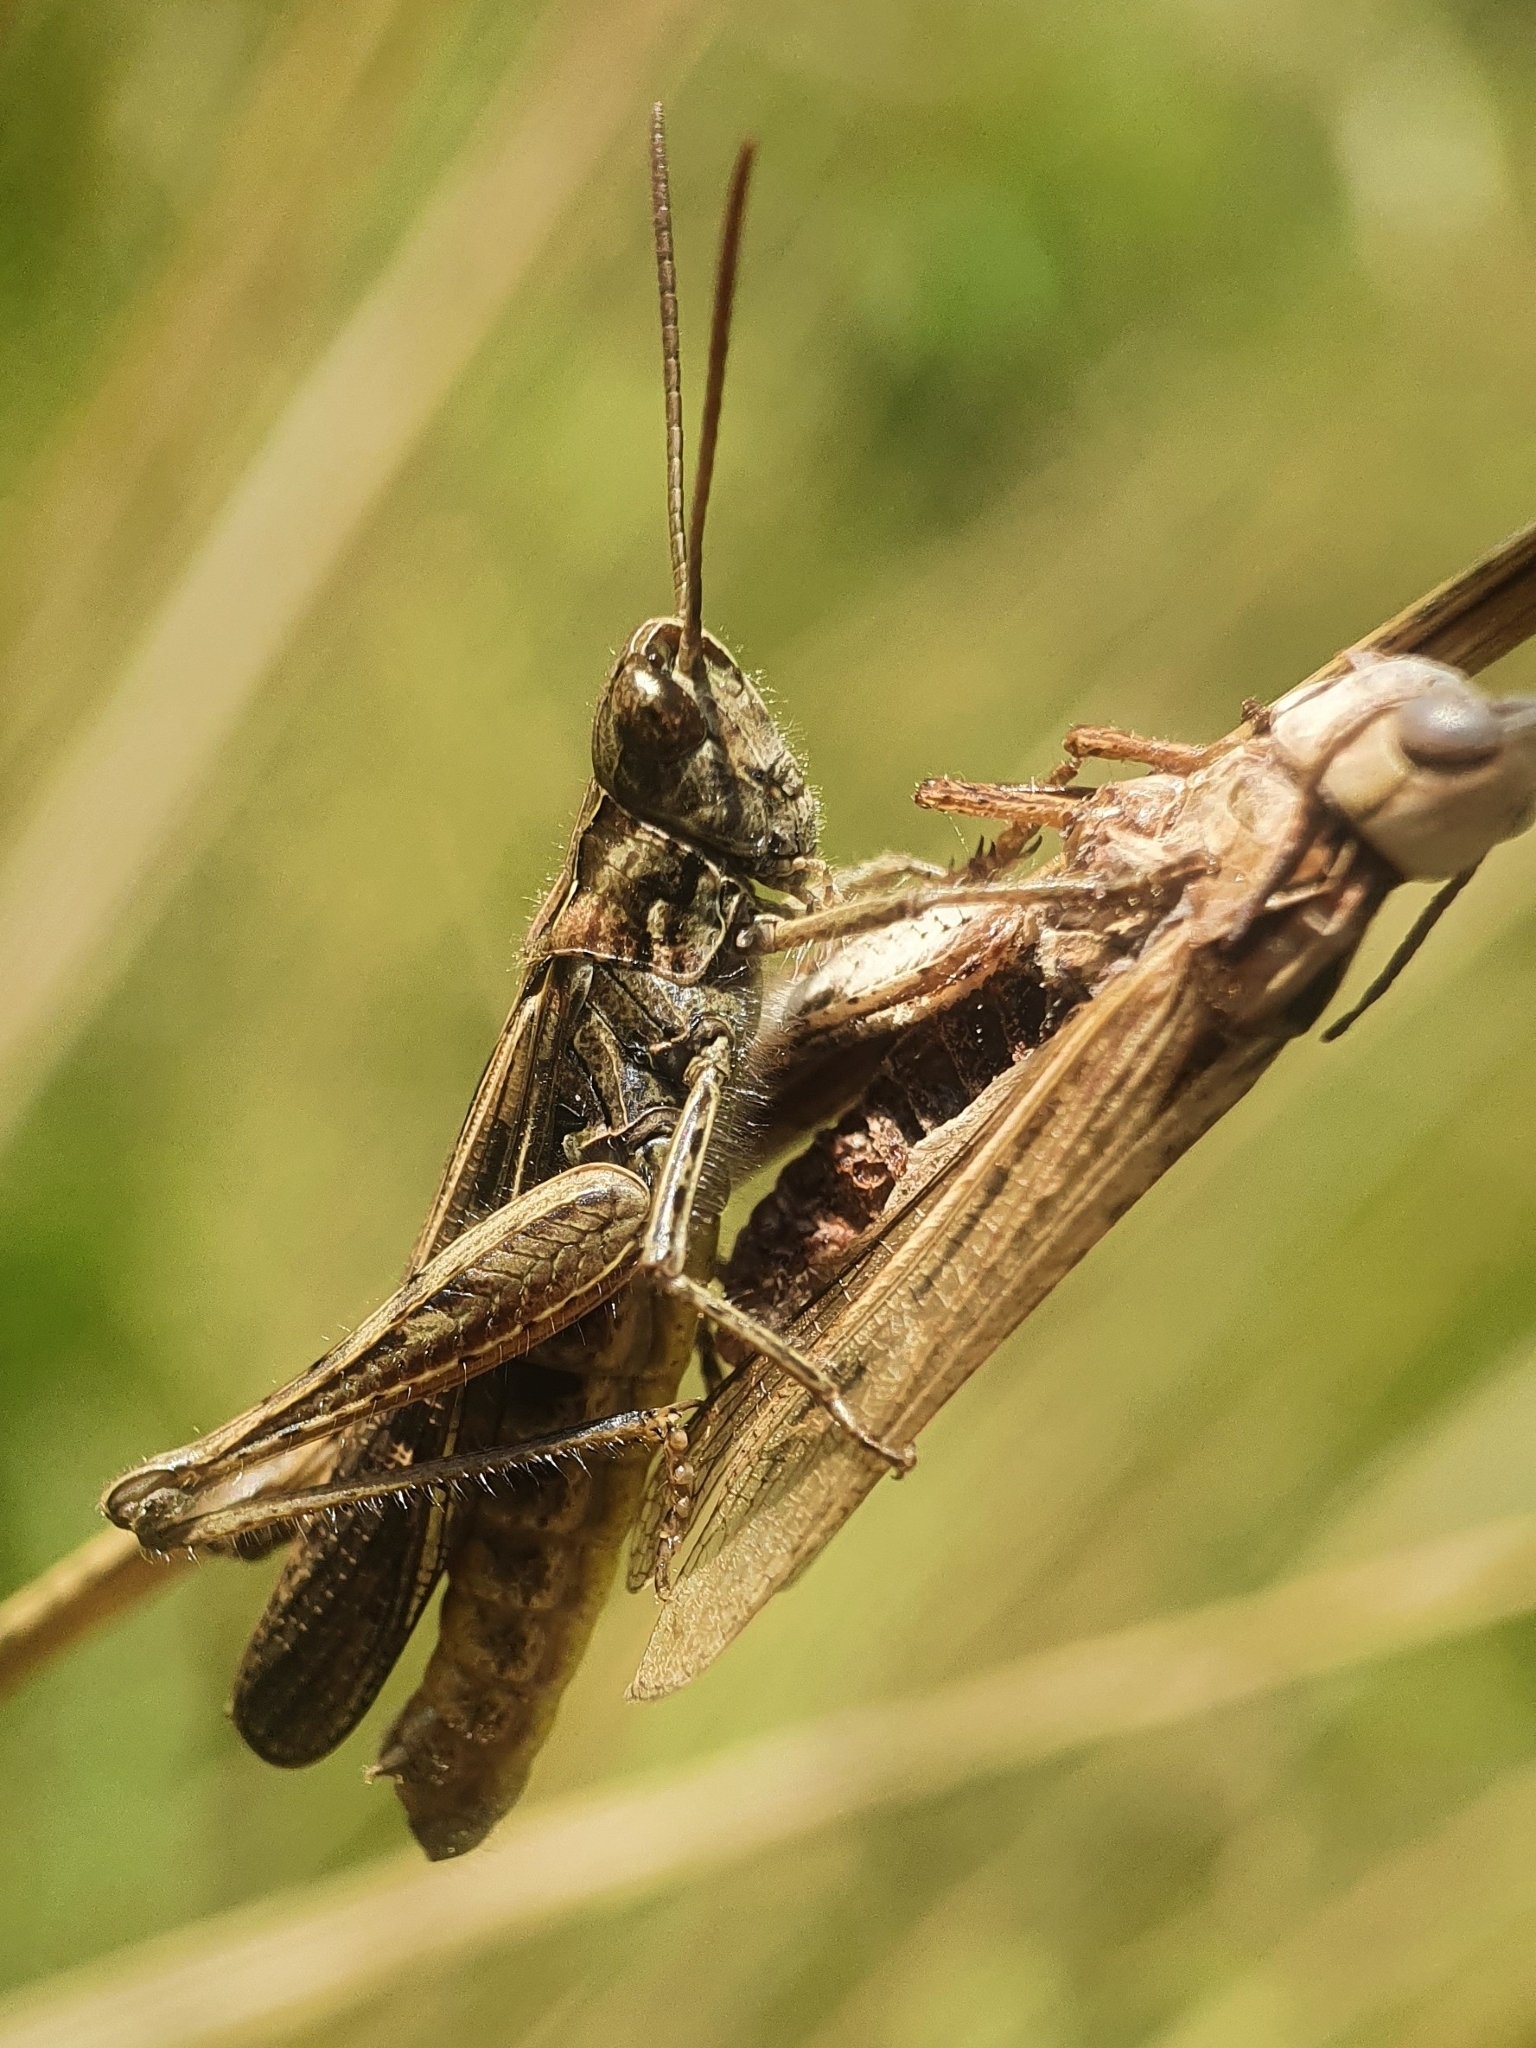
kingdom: Animalia
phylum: Arthropoda
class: Insecta
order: Orthoptera
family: Acrididae
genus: Chorthippus
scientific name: Chorthippus brunneus
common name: Field grasshopper
